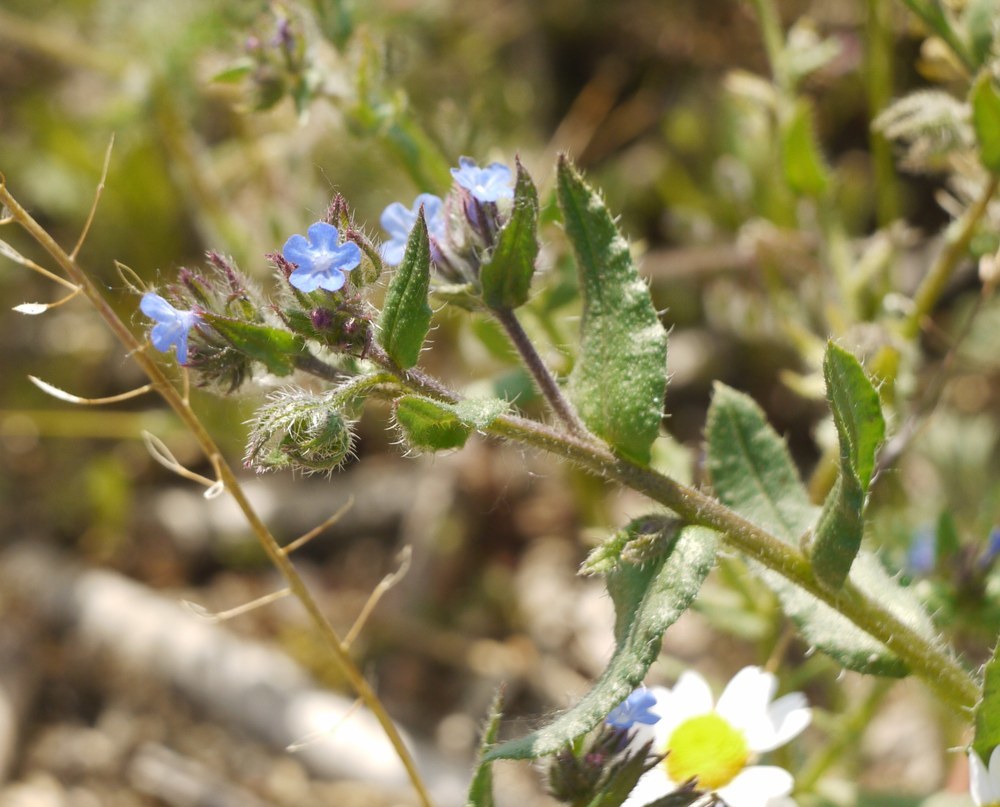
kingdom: Plantae
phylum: Tracheophyta
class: Magnoliopsida
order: Boraginales
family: Boraginaceae
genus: Lycopsis
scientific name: Lycopsis arvensis
